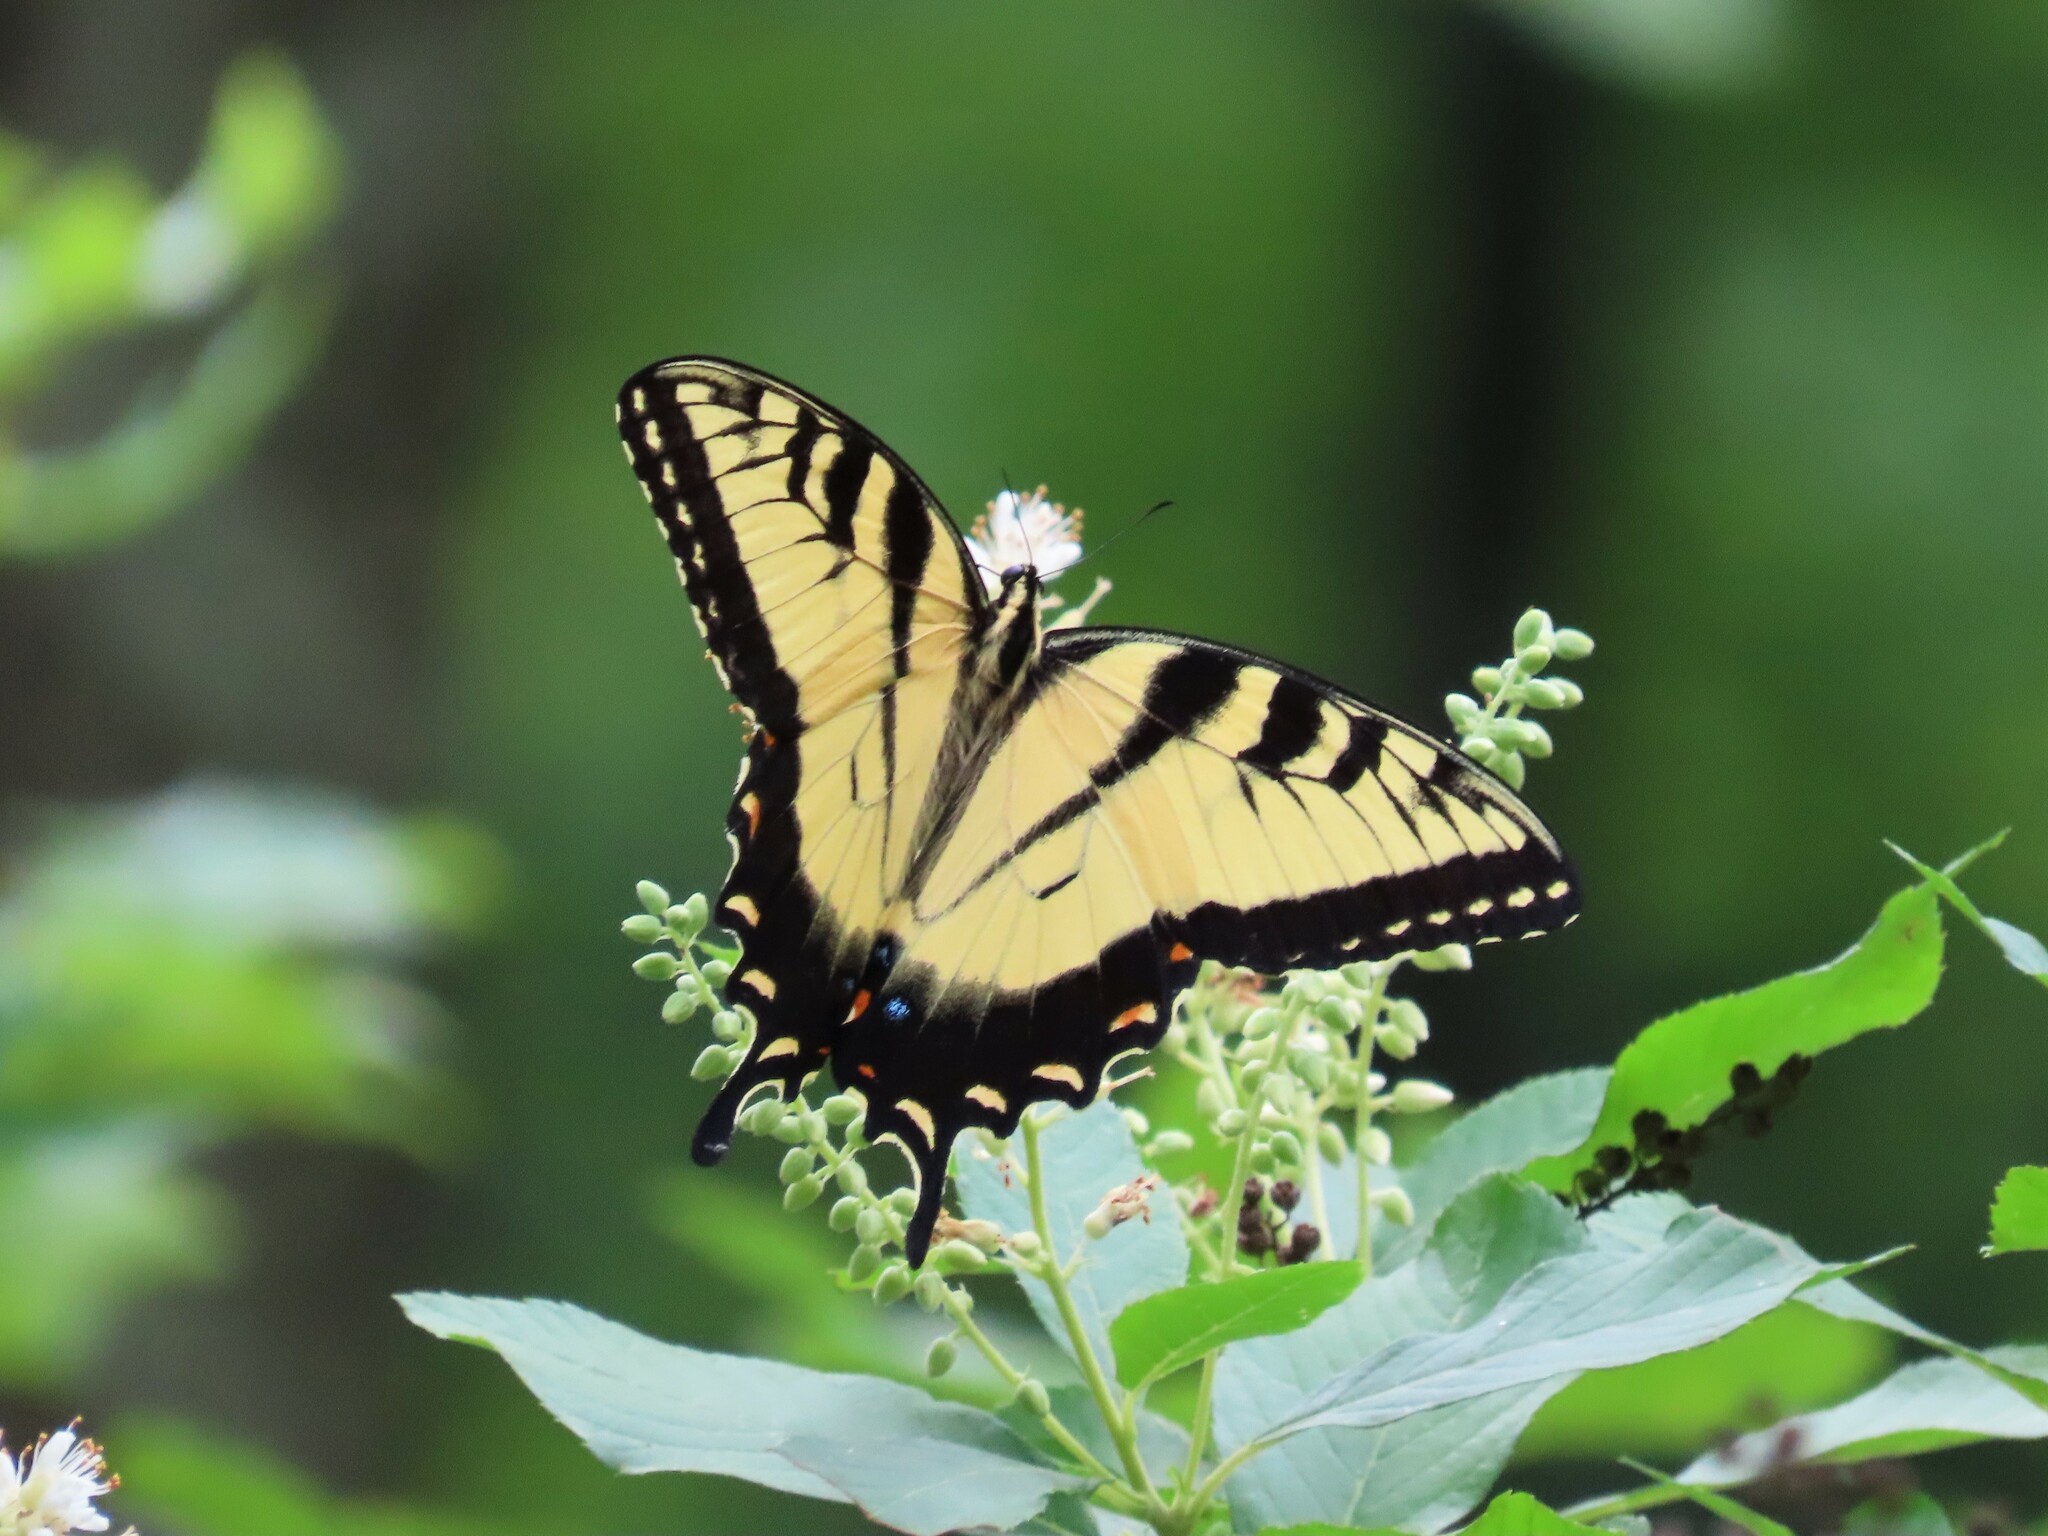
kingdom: Animalia
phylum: Arthropoda
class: Insecta
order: Lepidoptera
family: Papilionidae
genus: Papilio
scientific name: Papilio glaucus
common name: Tiger swallowtail
